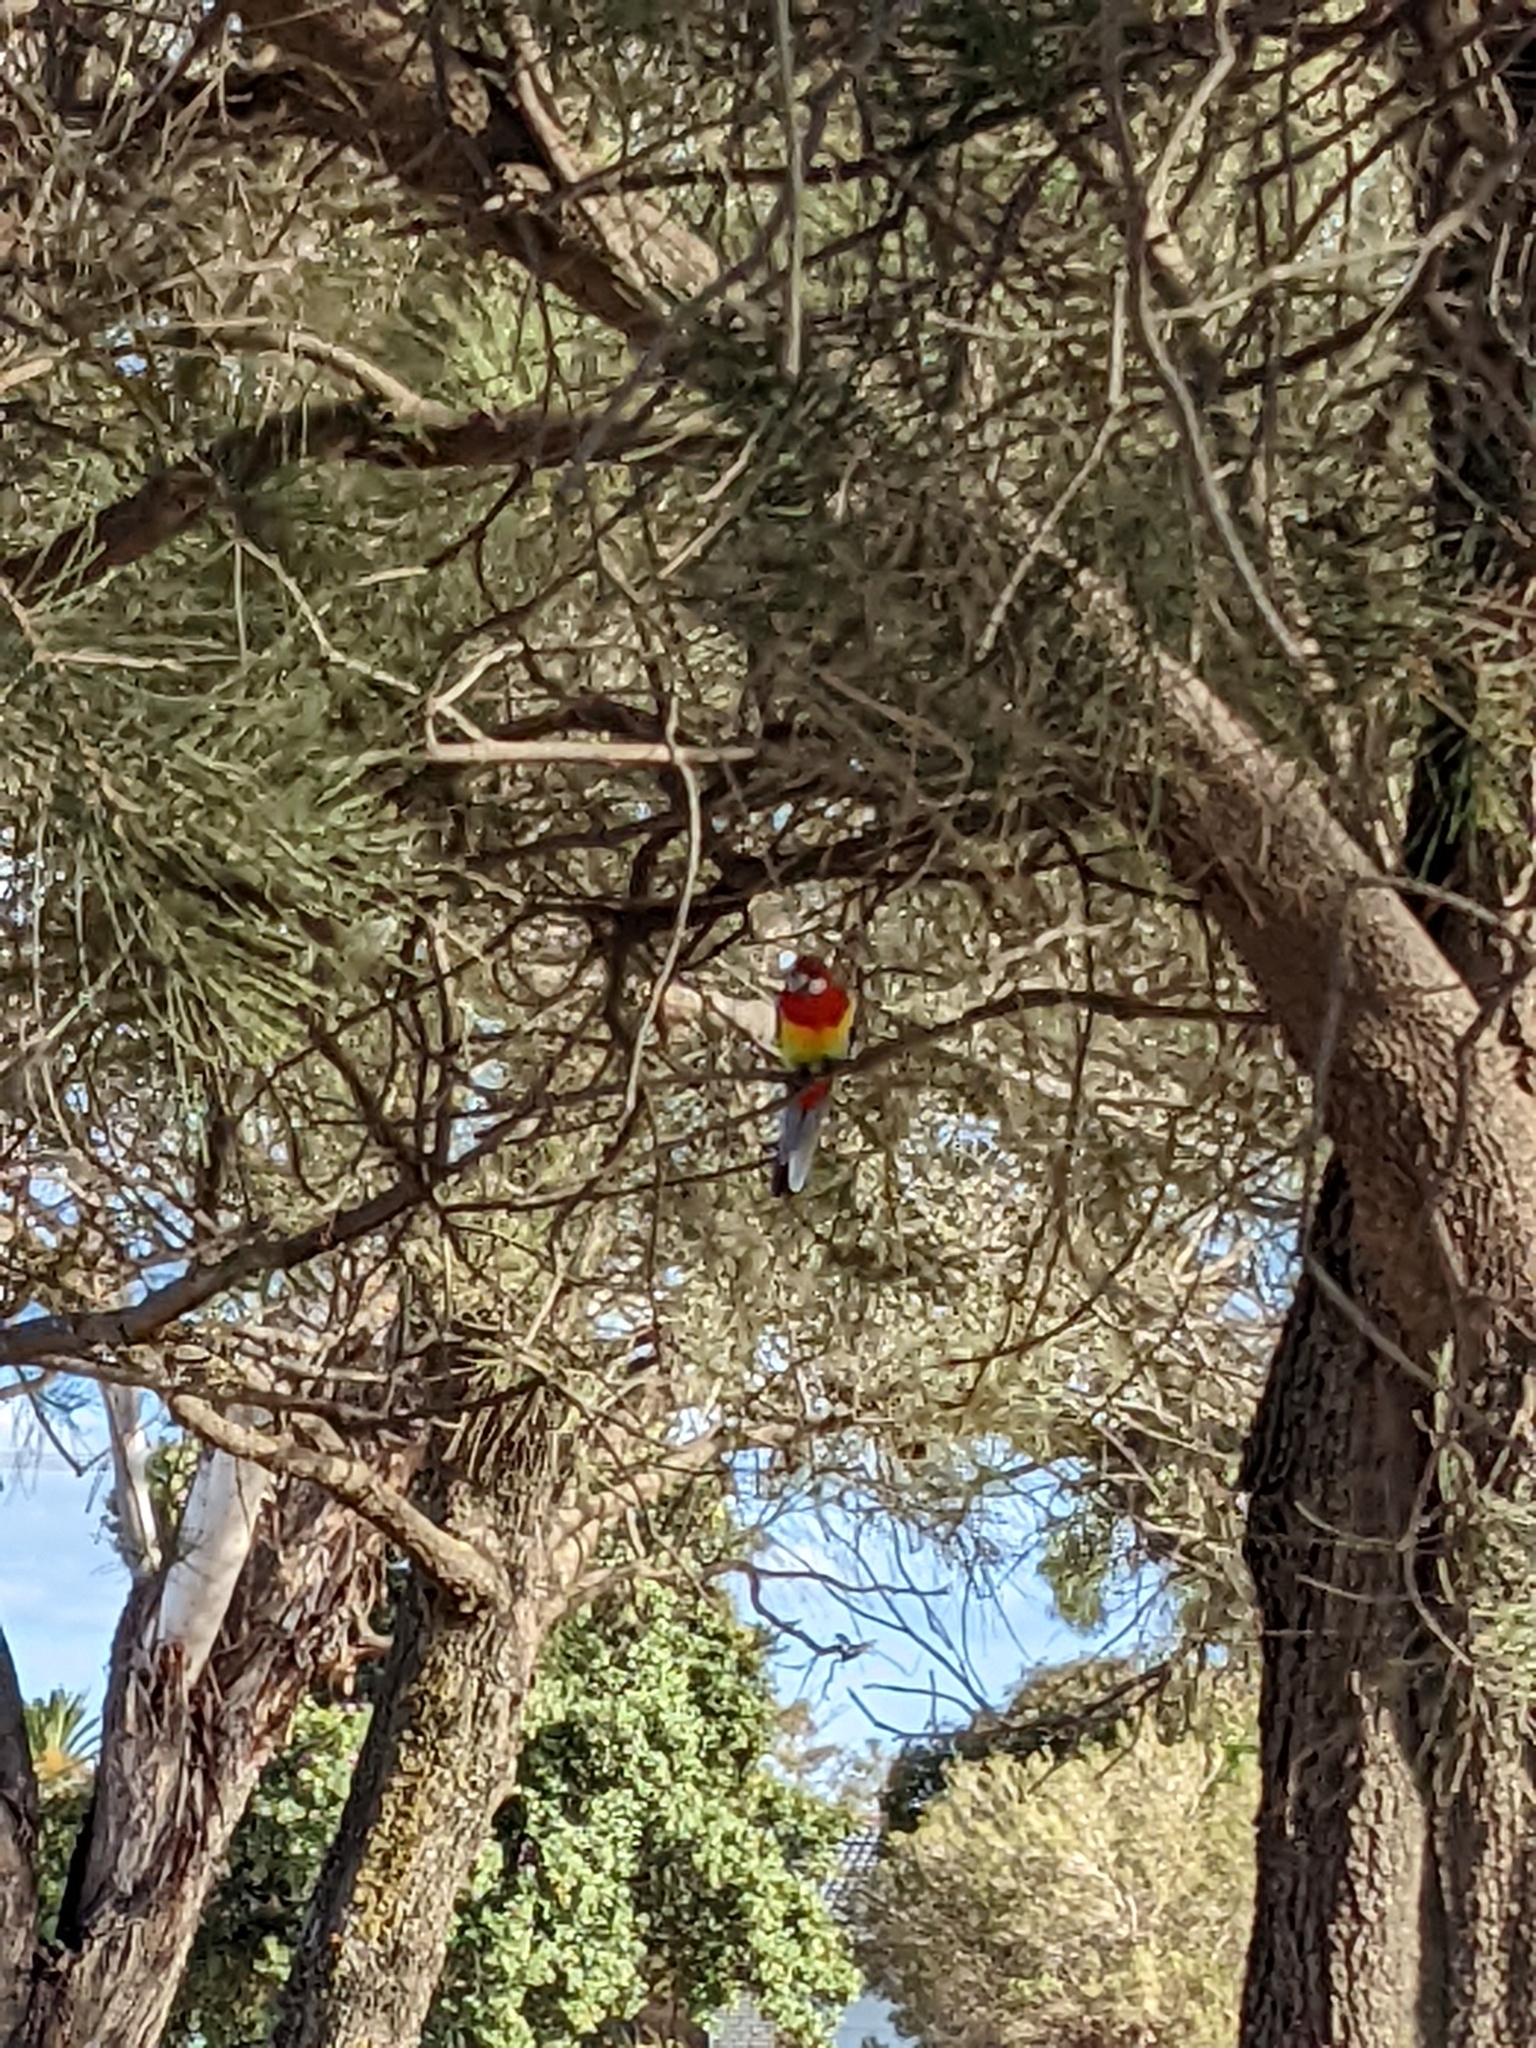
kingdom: Animalia
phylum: Chordata
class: Aves
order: Psittaciformes
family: Psittacidae
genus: Platycercus
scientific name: Platycercus eximius
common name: Eastern rosella
